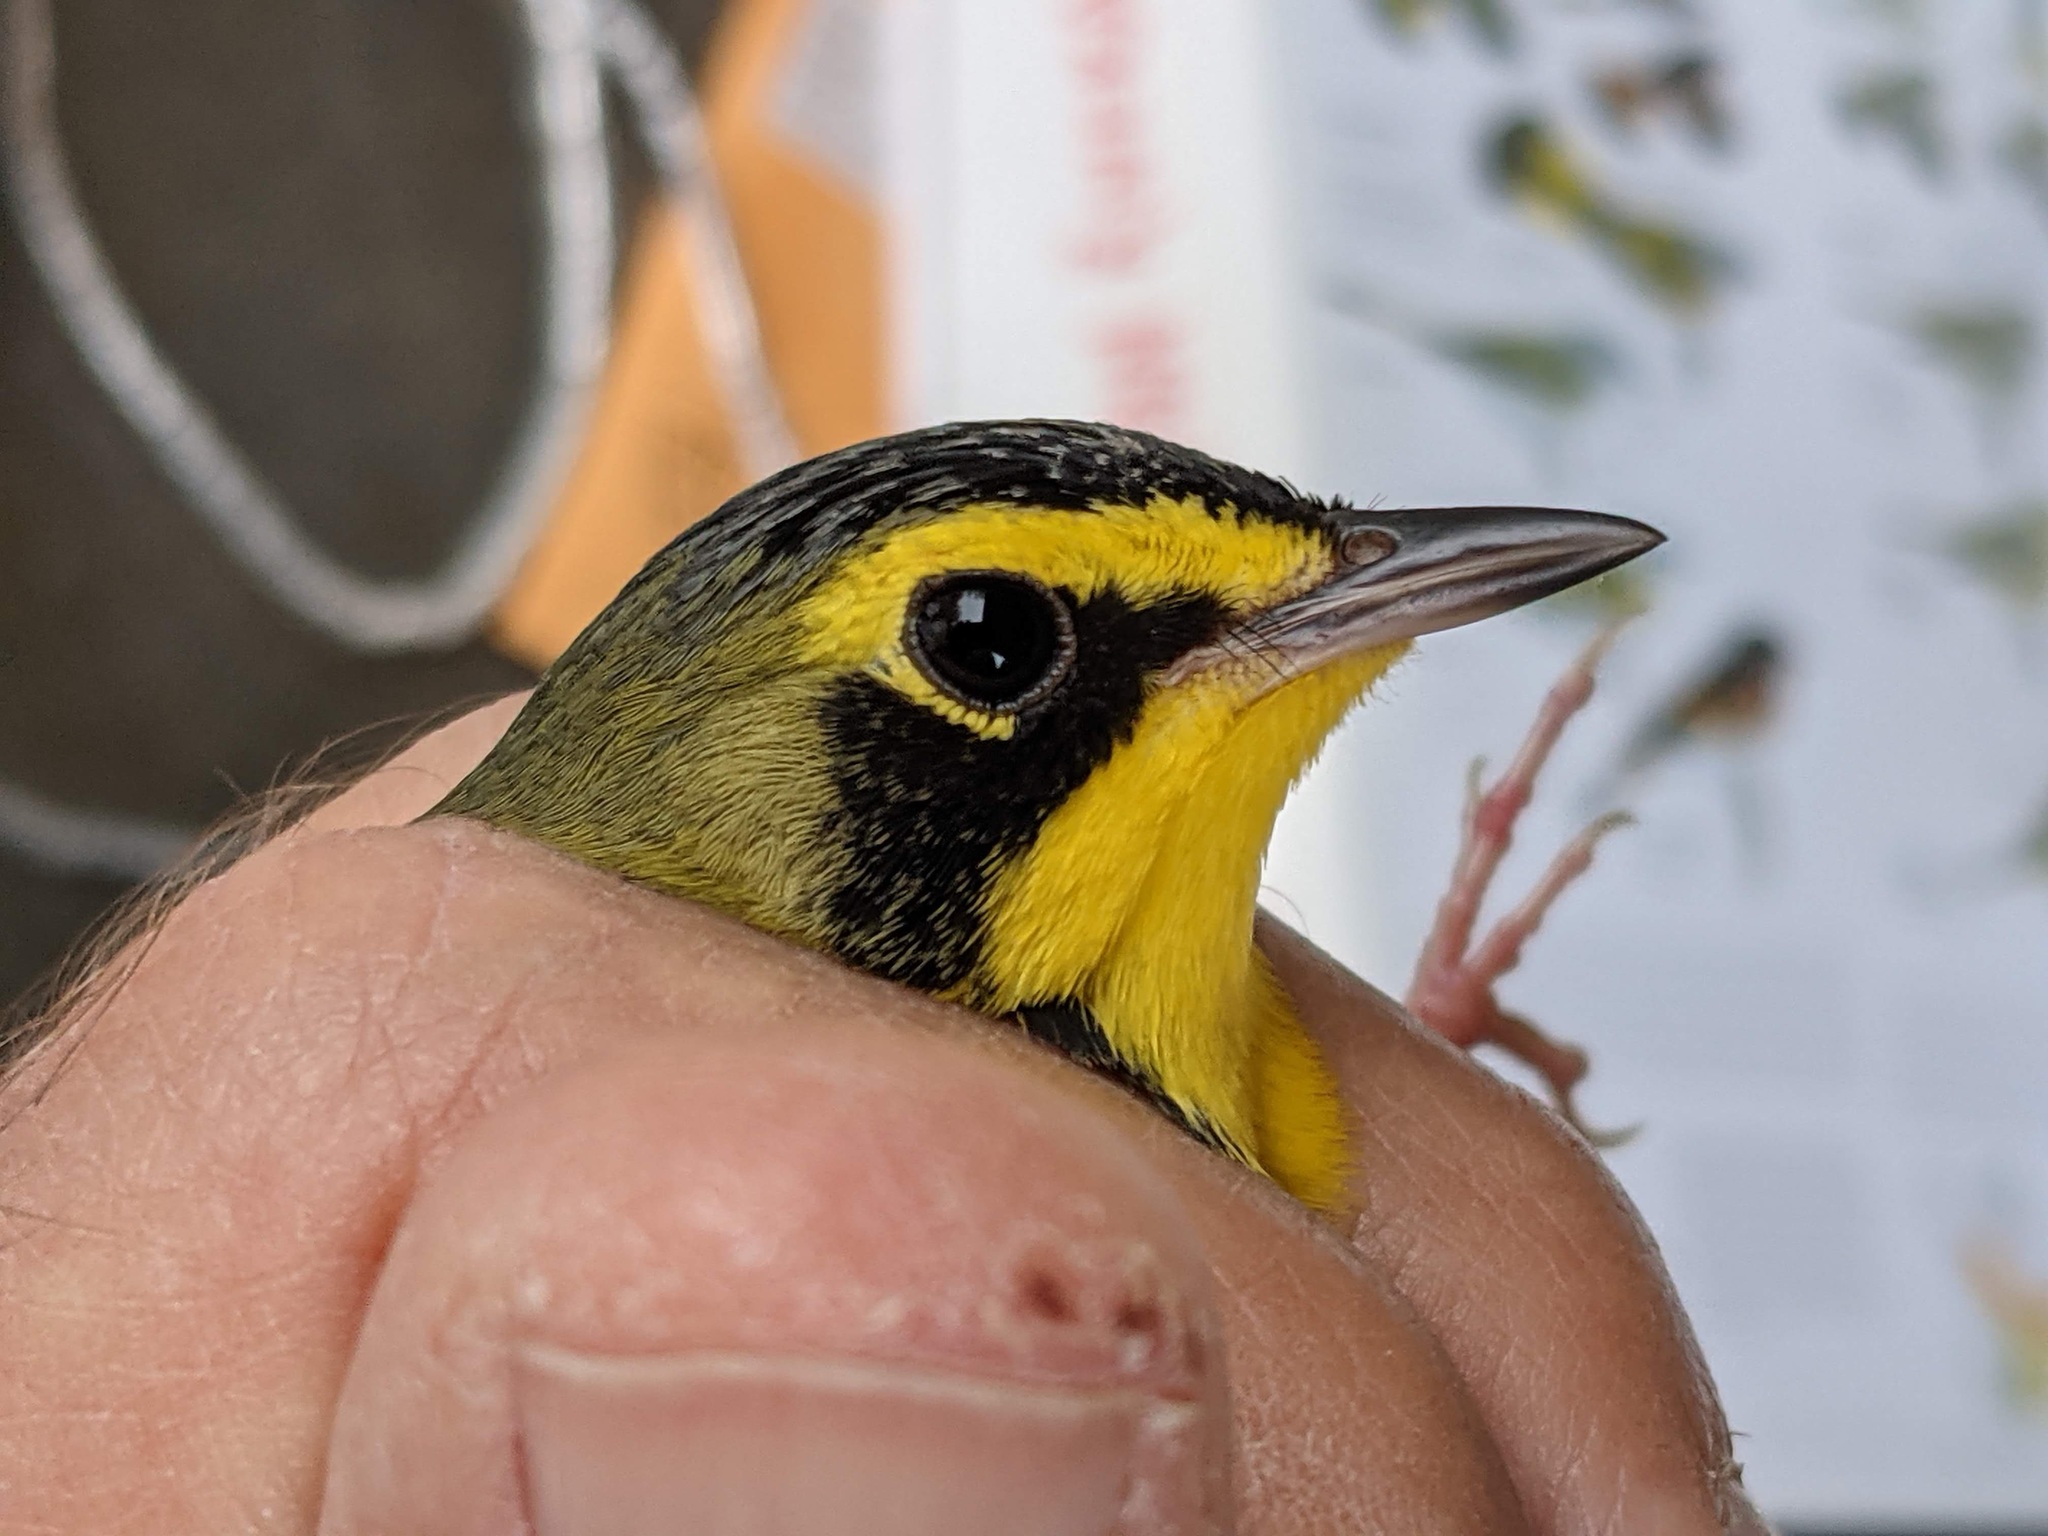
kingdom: Animalia
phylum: Chordata
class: Aves
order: Passeriformes
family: Parulidae
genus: Geothlypis
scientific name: Geothlypis formosa
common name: Kentucky warbler
